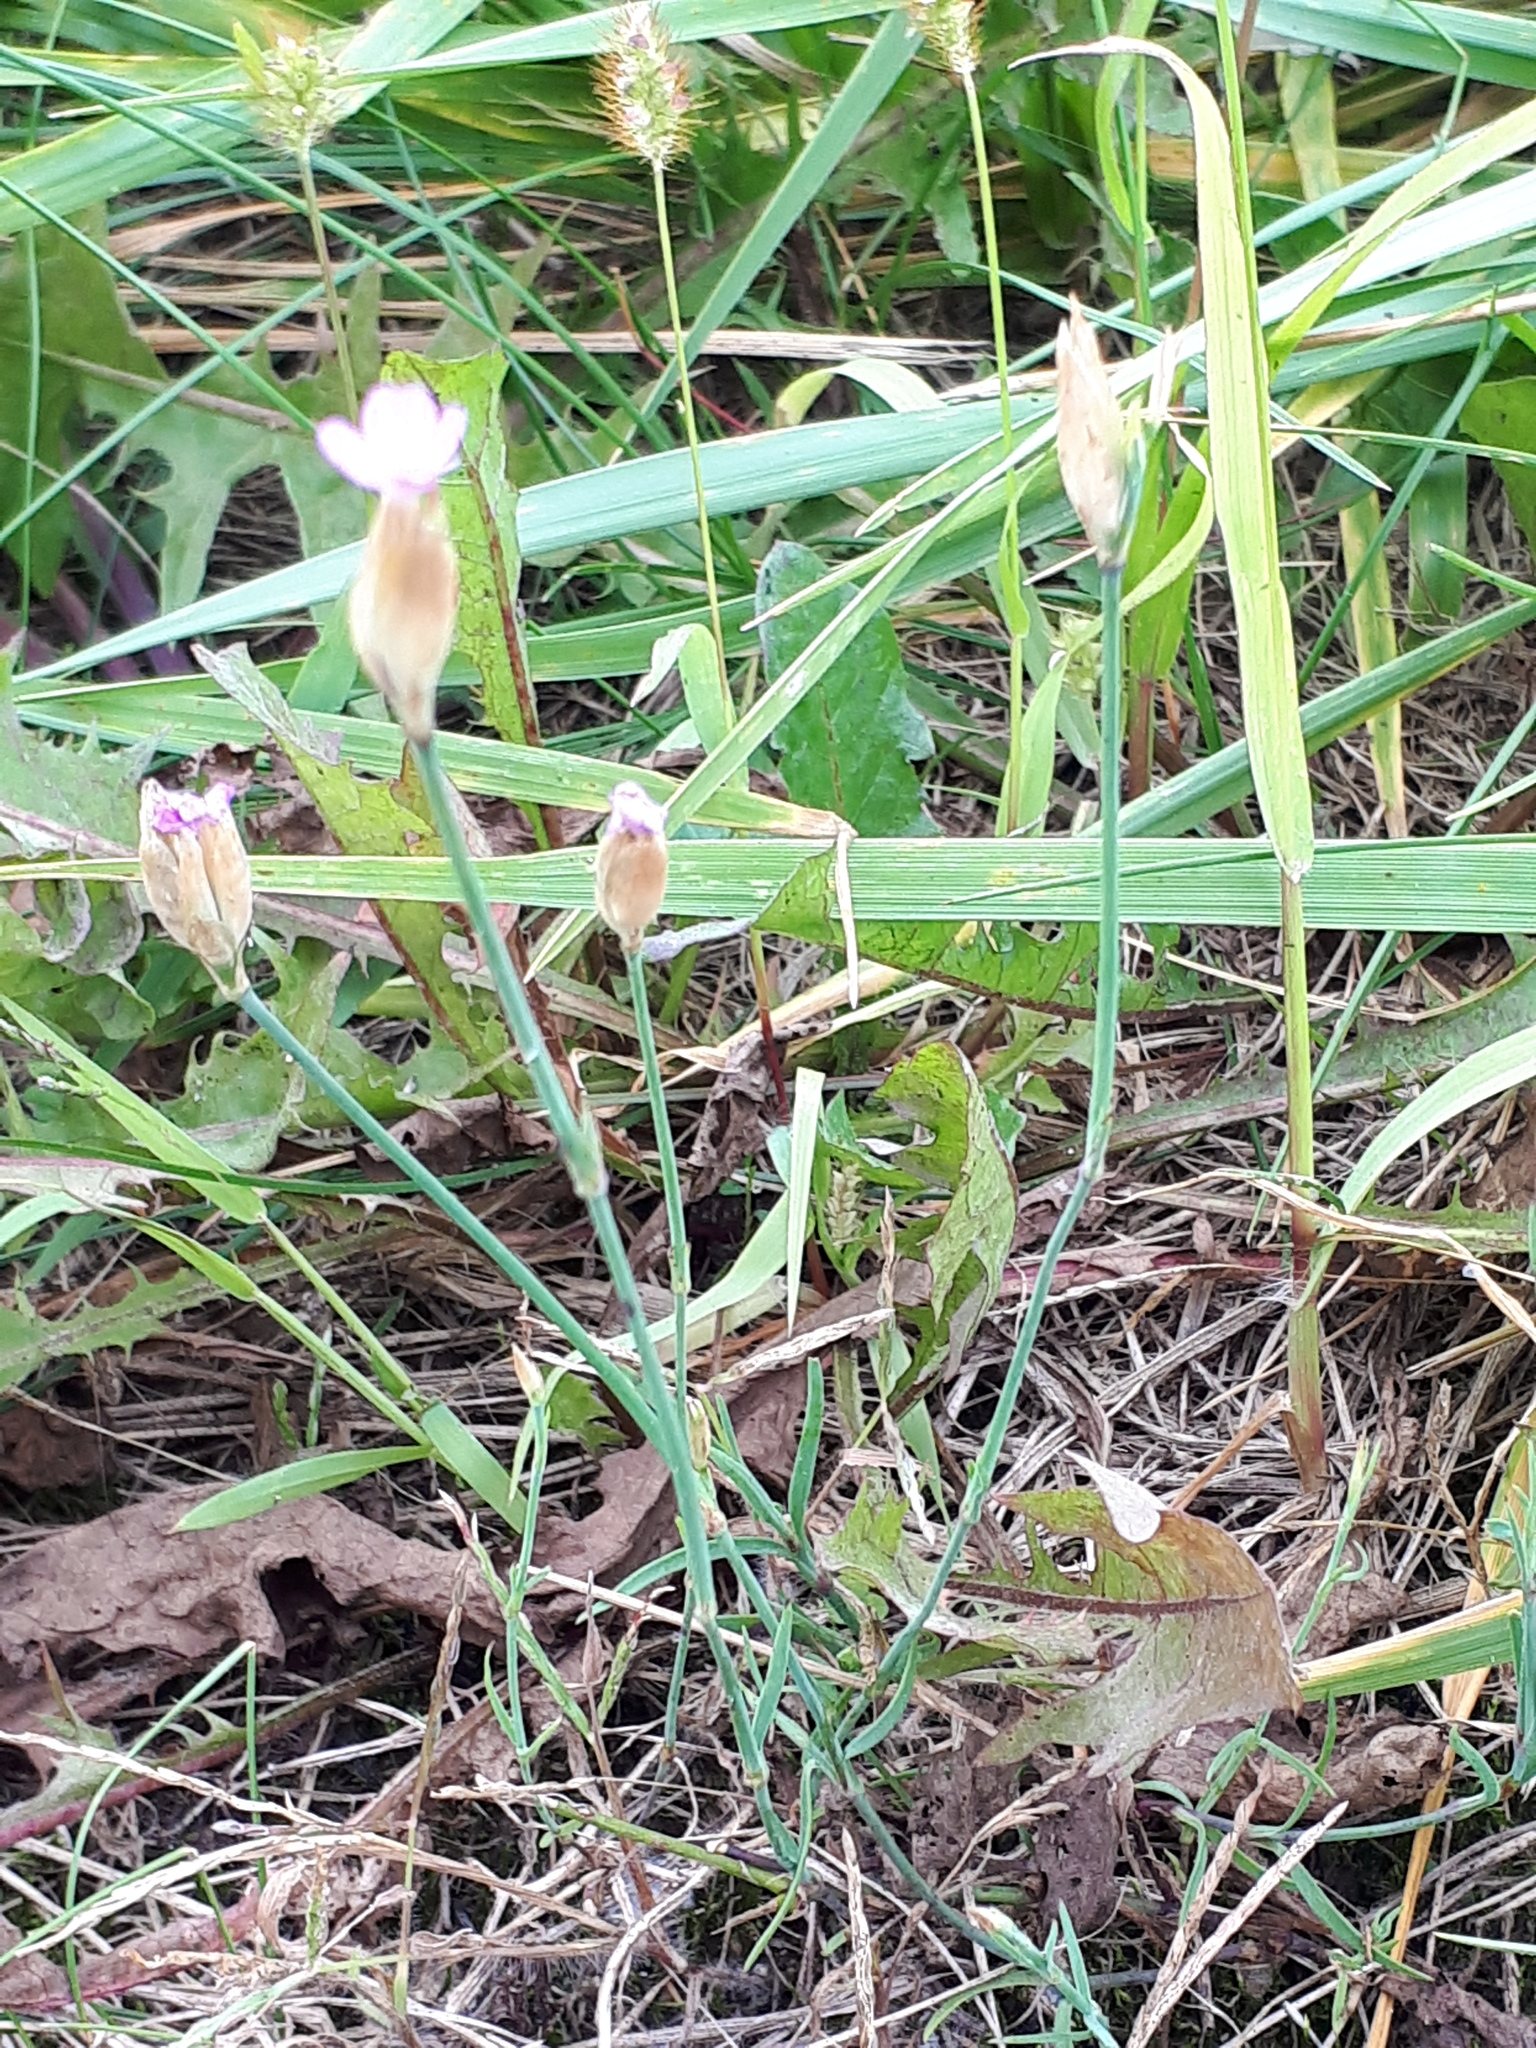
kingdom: Plantae
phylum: Tracheophyta
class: Magnoliopsida
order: Caryophyllales
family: Caryophyllaceae
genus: Petrorhagia
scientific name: Petrorhagia prolifera
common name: Proliferous pink
